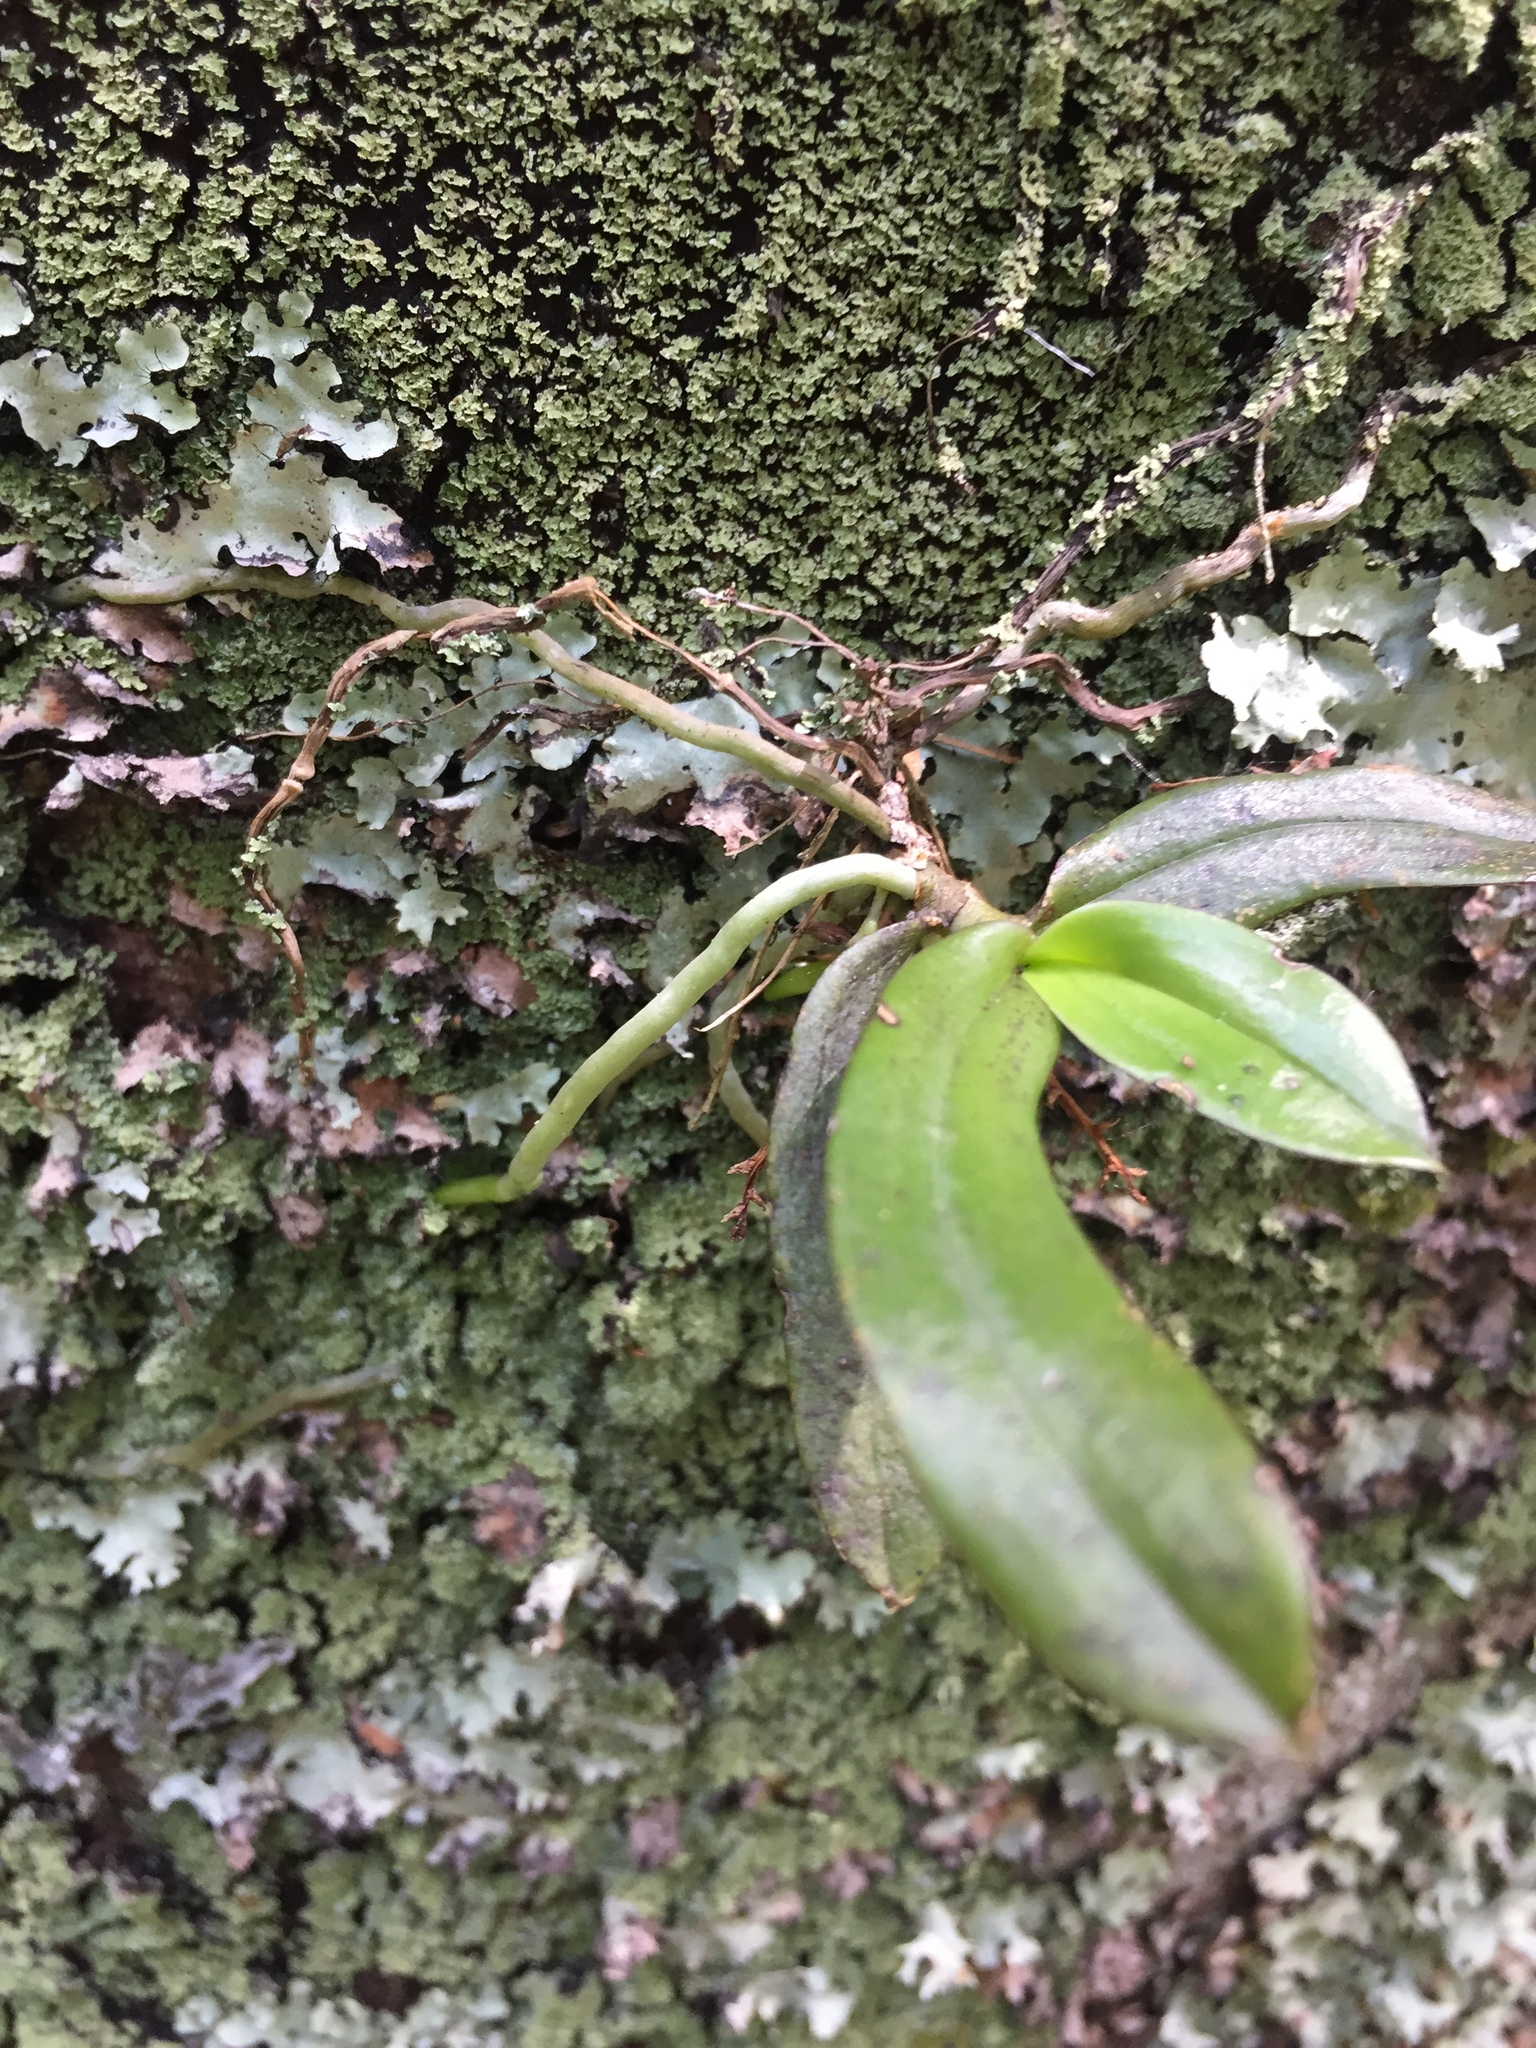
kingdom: Plantae
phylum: Tracheophyta
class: Liliopsida
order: Asparagales
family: Orchidaceae
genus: Drymoanthus
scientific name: Drymoanthus adversus
